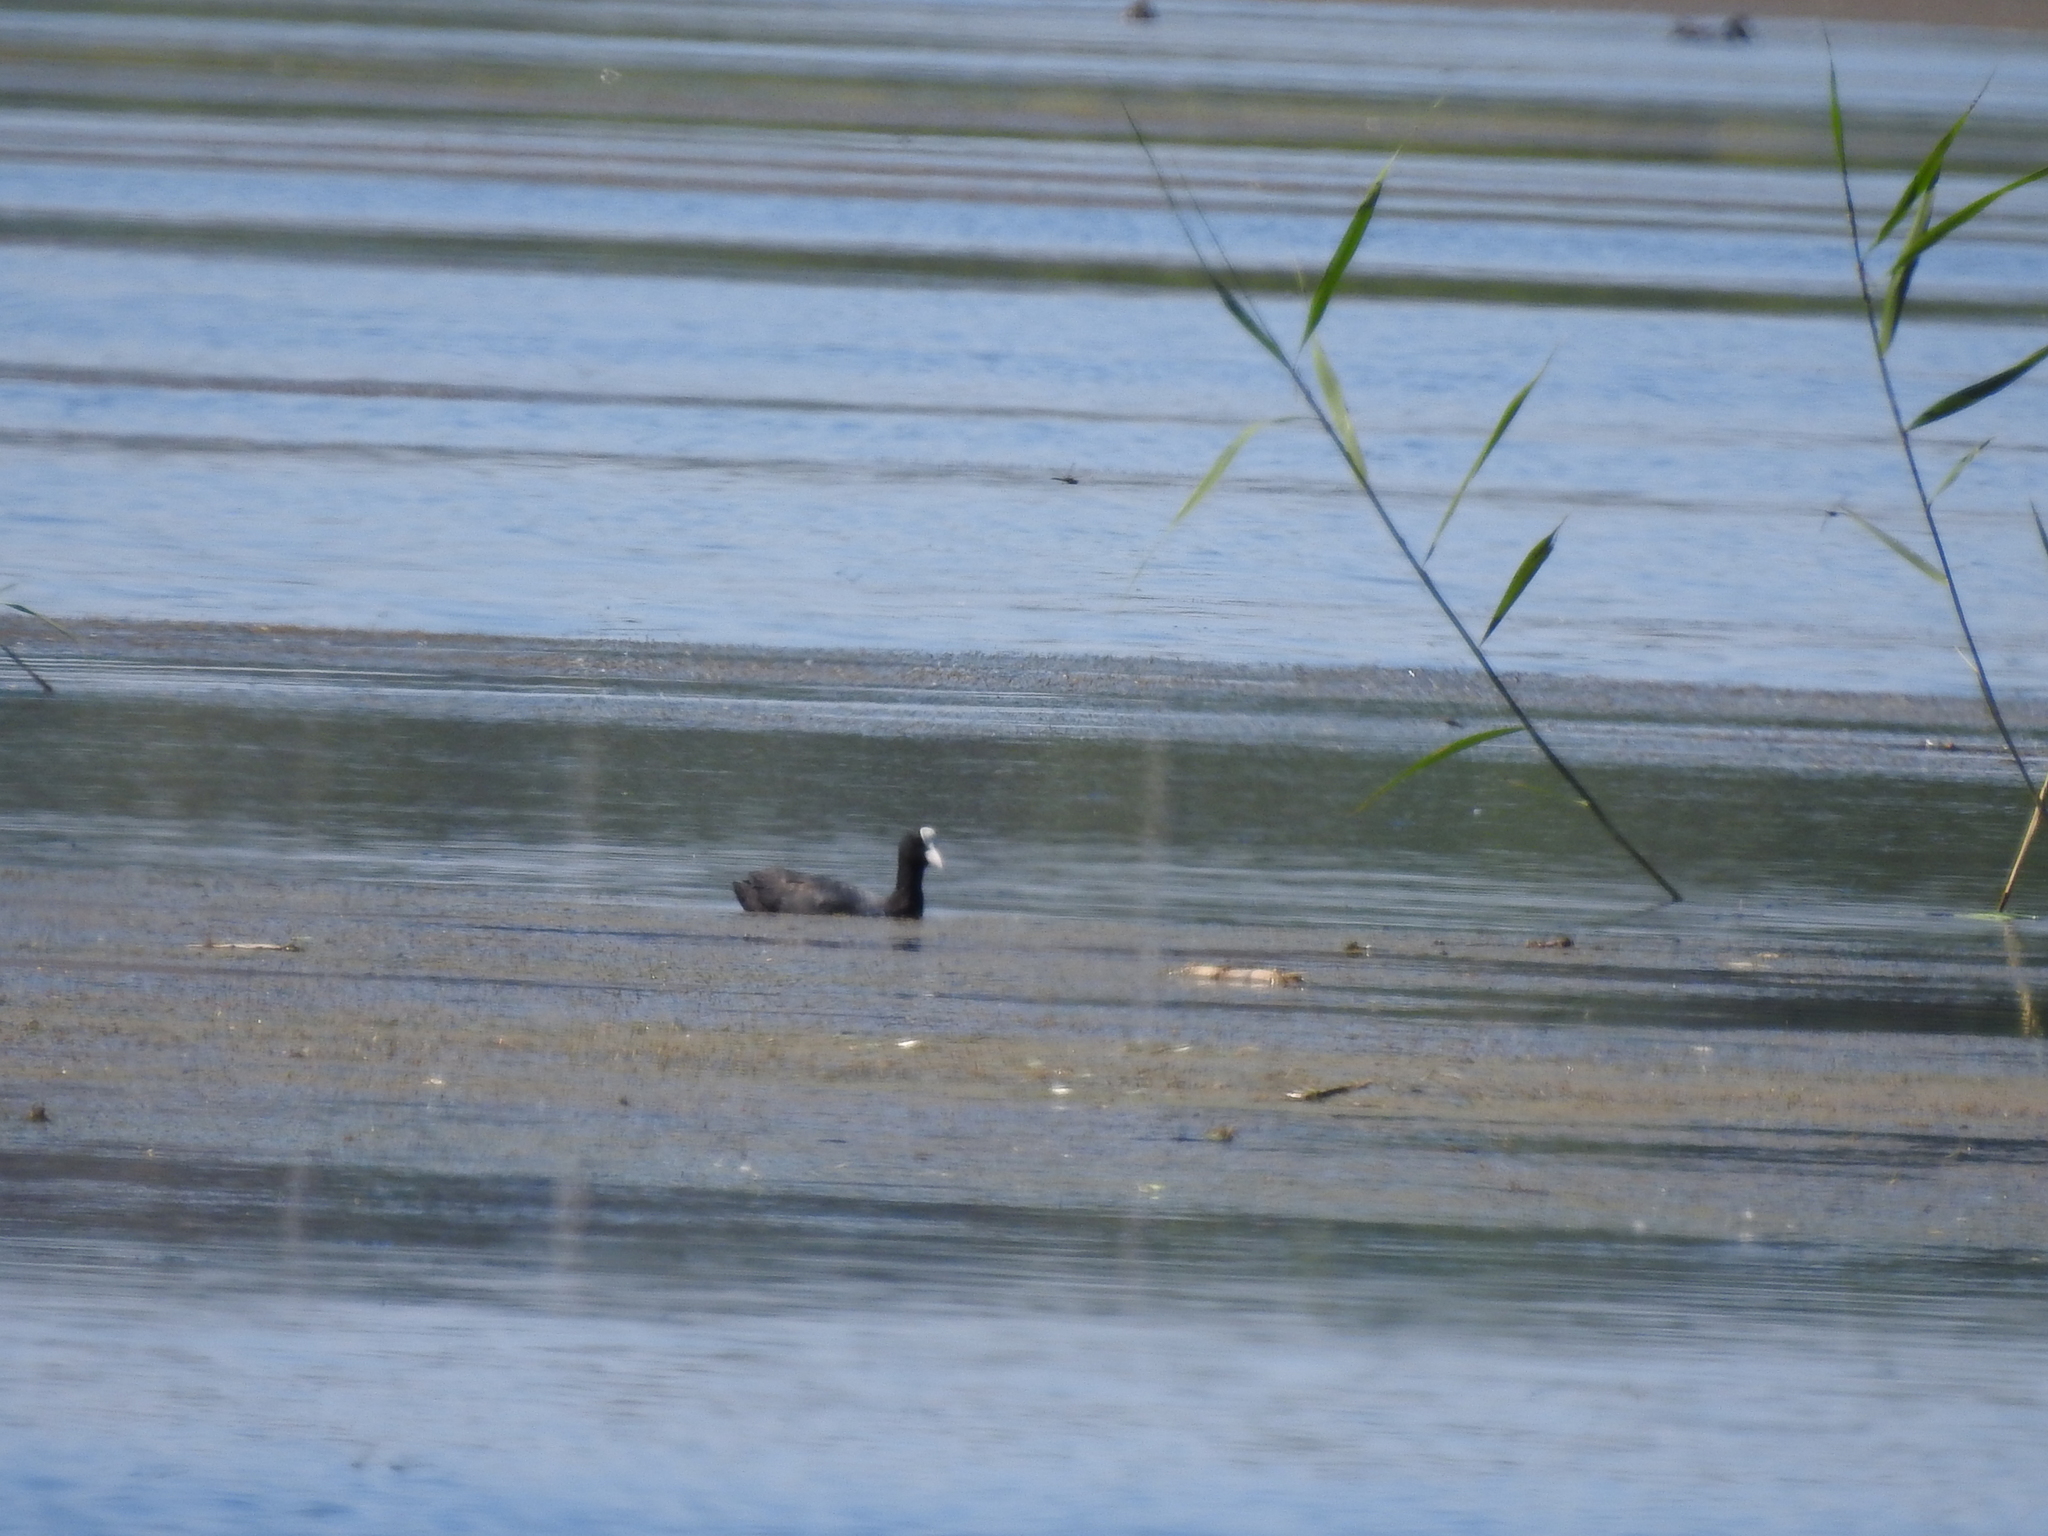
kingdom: Animalia
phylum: Chordata
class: Aves
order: Gruiformes
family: Rallidae
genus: Fulica
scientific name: Fulica atra
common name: Eurasian coot
